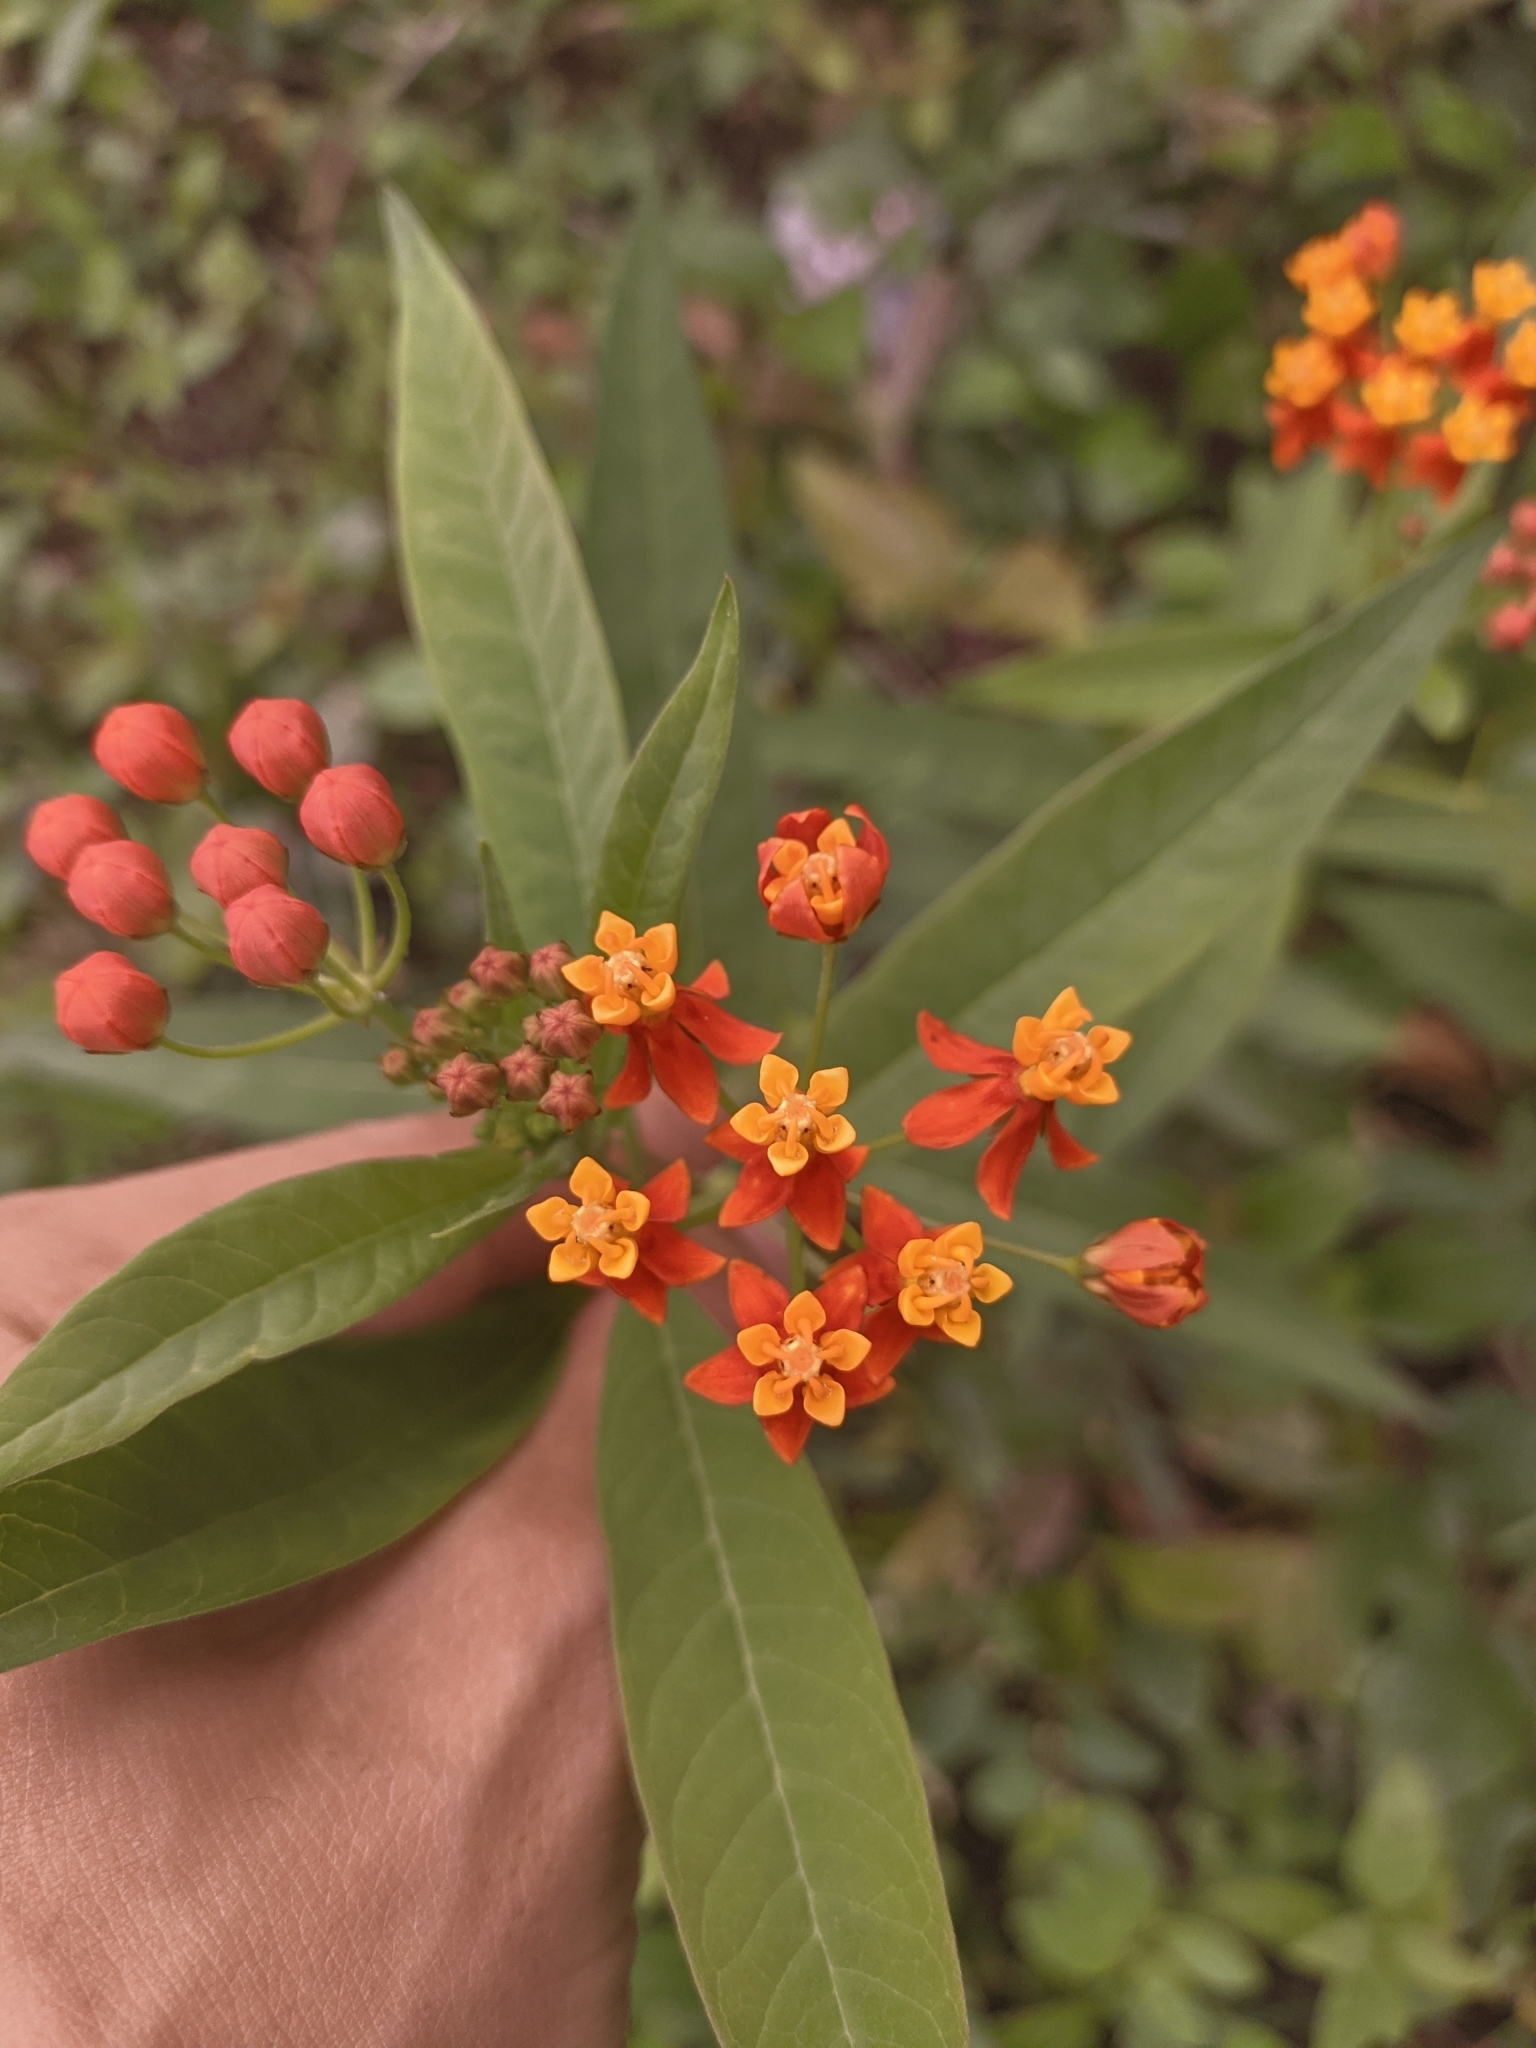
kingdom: Plantae
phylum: Tracheophyta
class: Magnoliopsida
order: Gentianales
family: Apocynaceae
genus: Asclepias
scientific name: Asclepias curassavica
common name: Bloodflower
